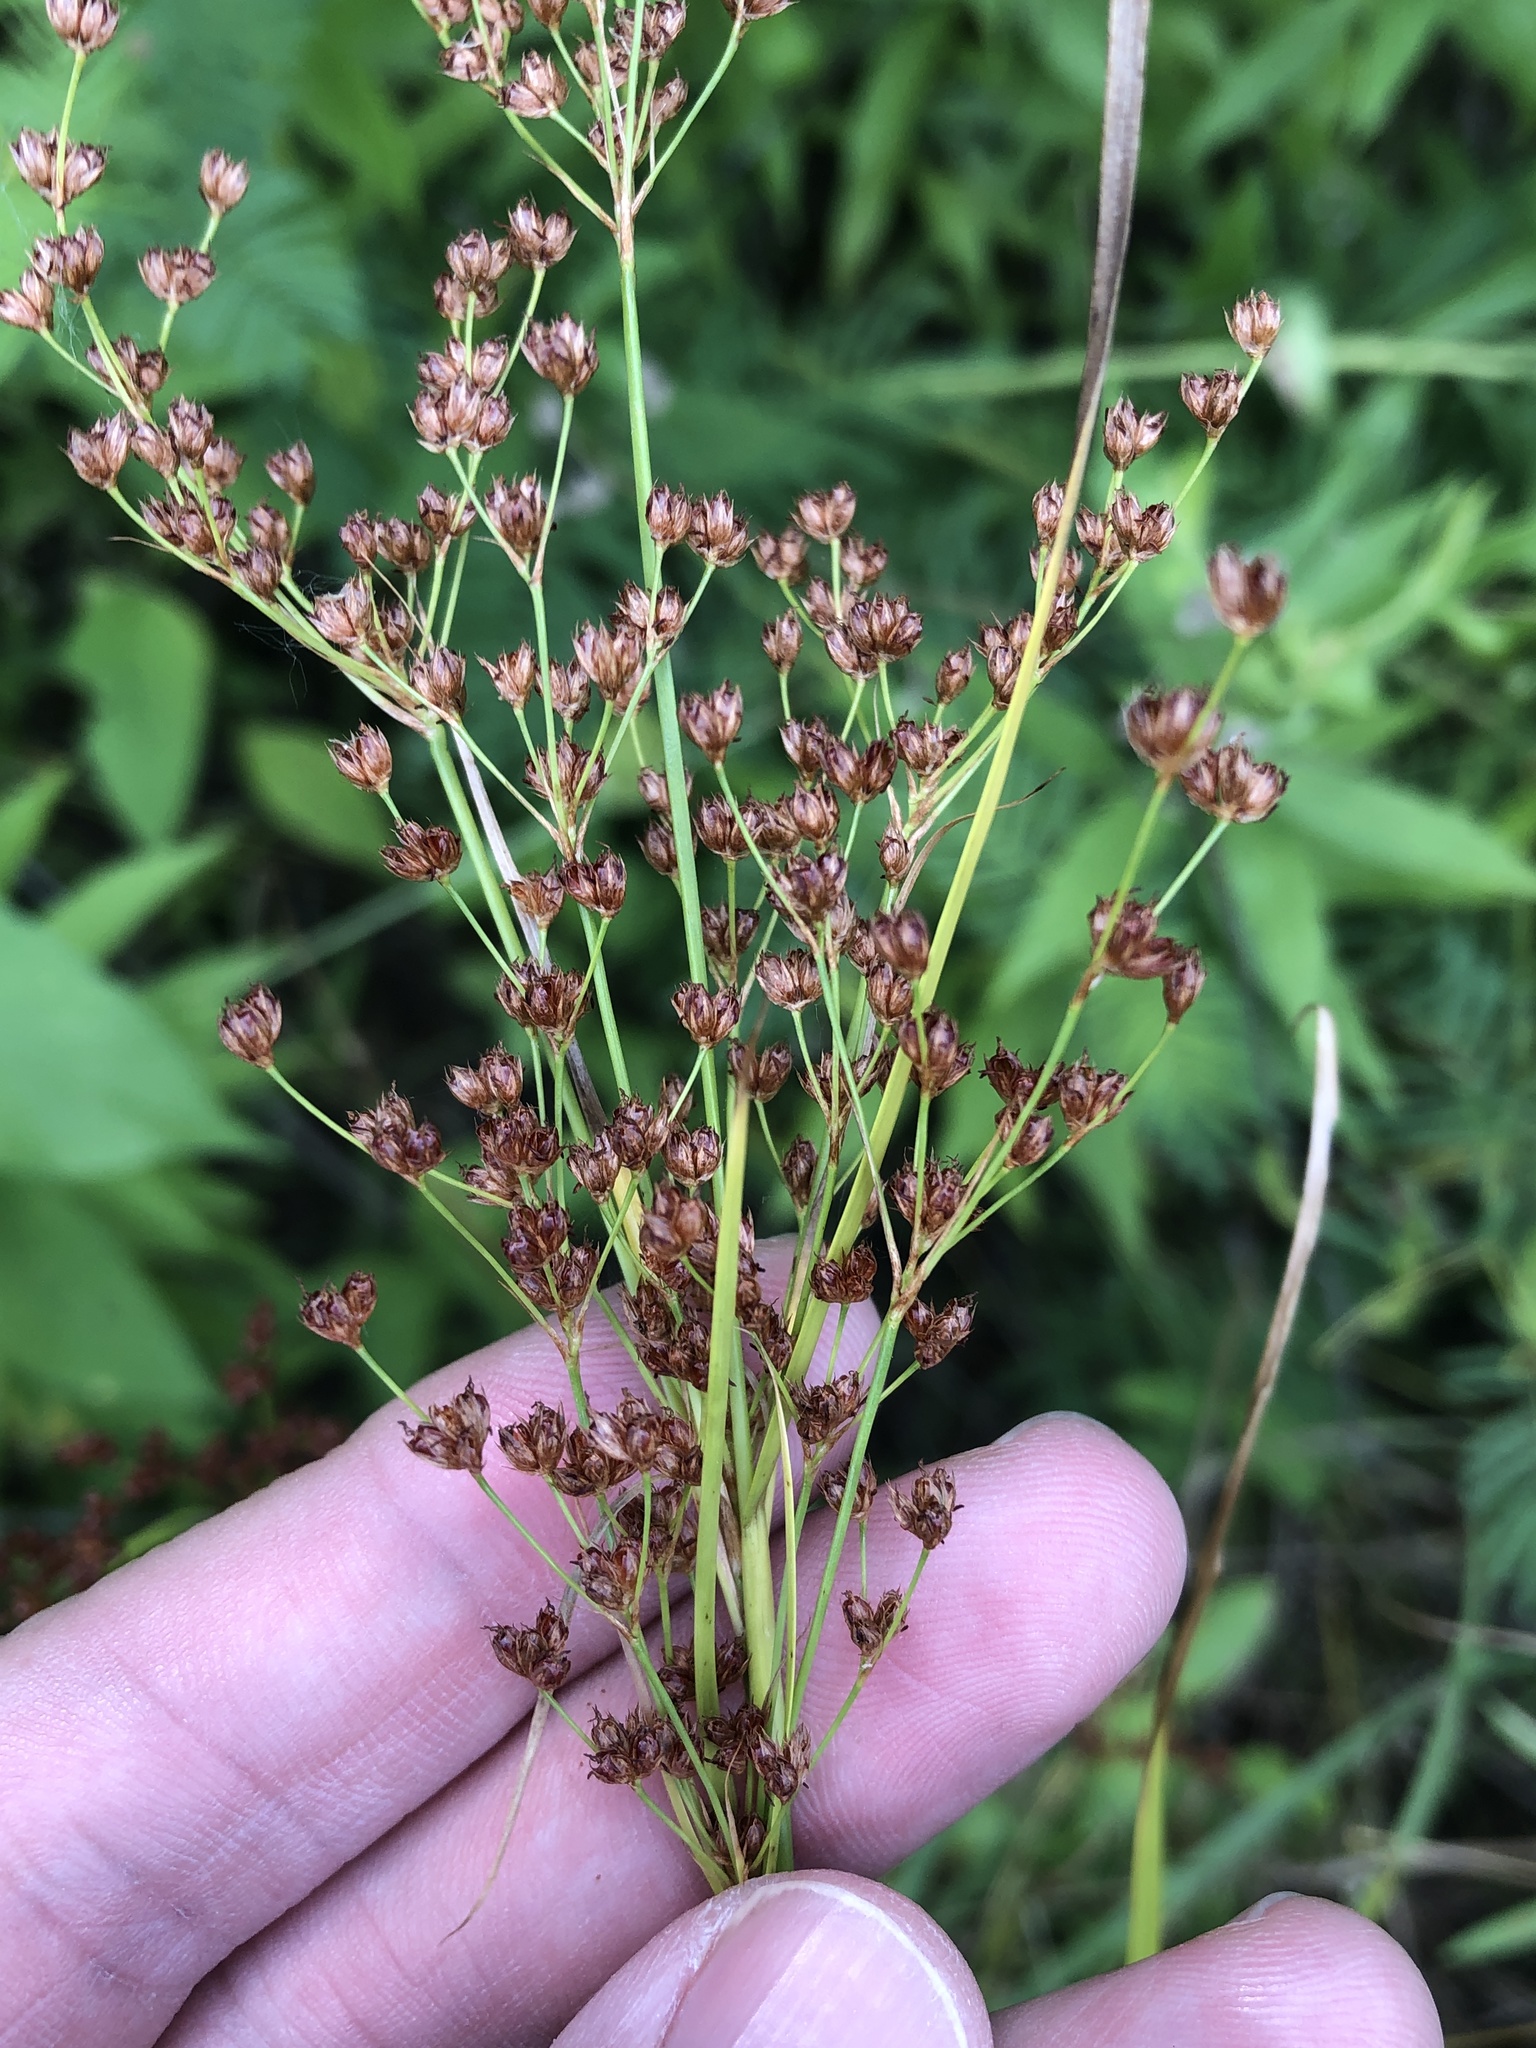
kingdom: Plantae
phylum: Tracheophyta
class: Liliopsida
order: Poales
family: Juncaceae
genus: Juncus
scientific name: Juncus marginatus
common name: Grass-leaf rush
